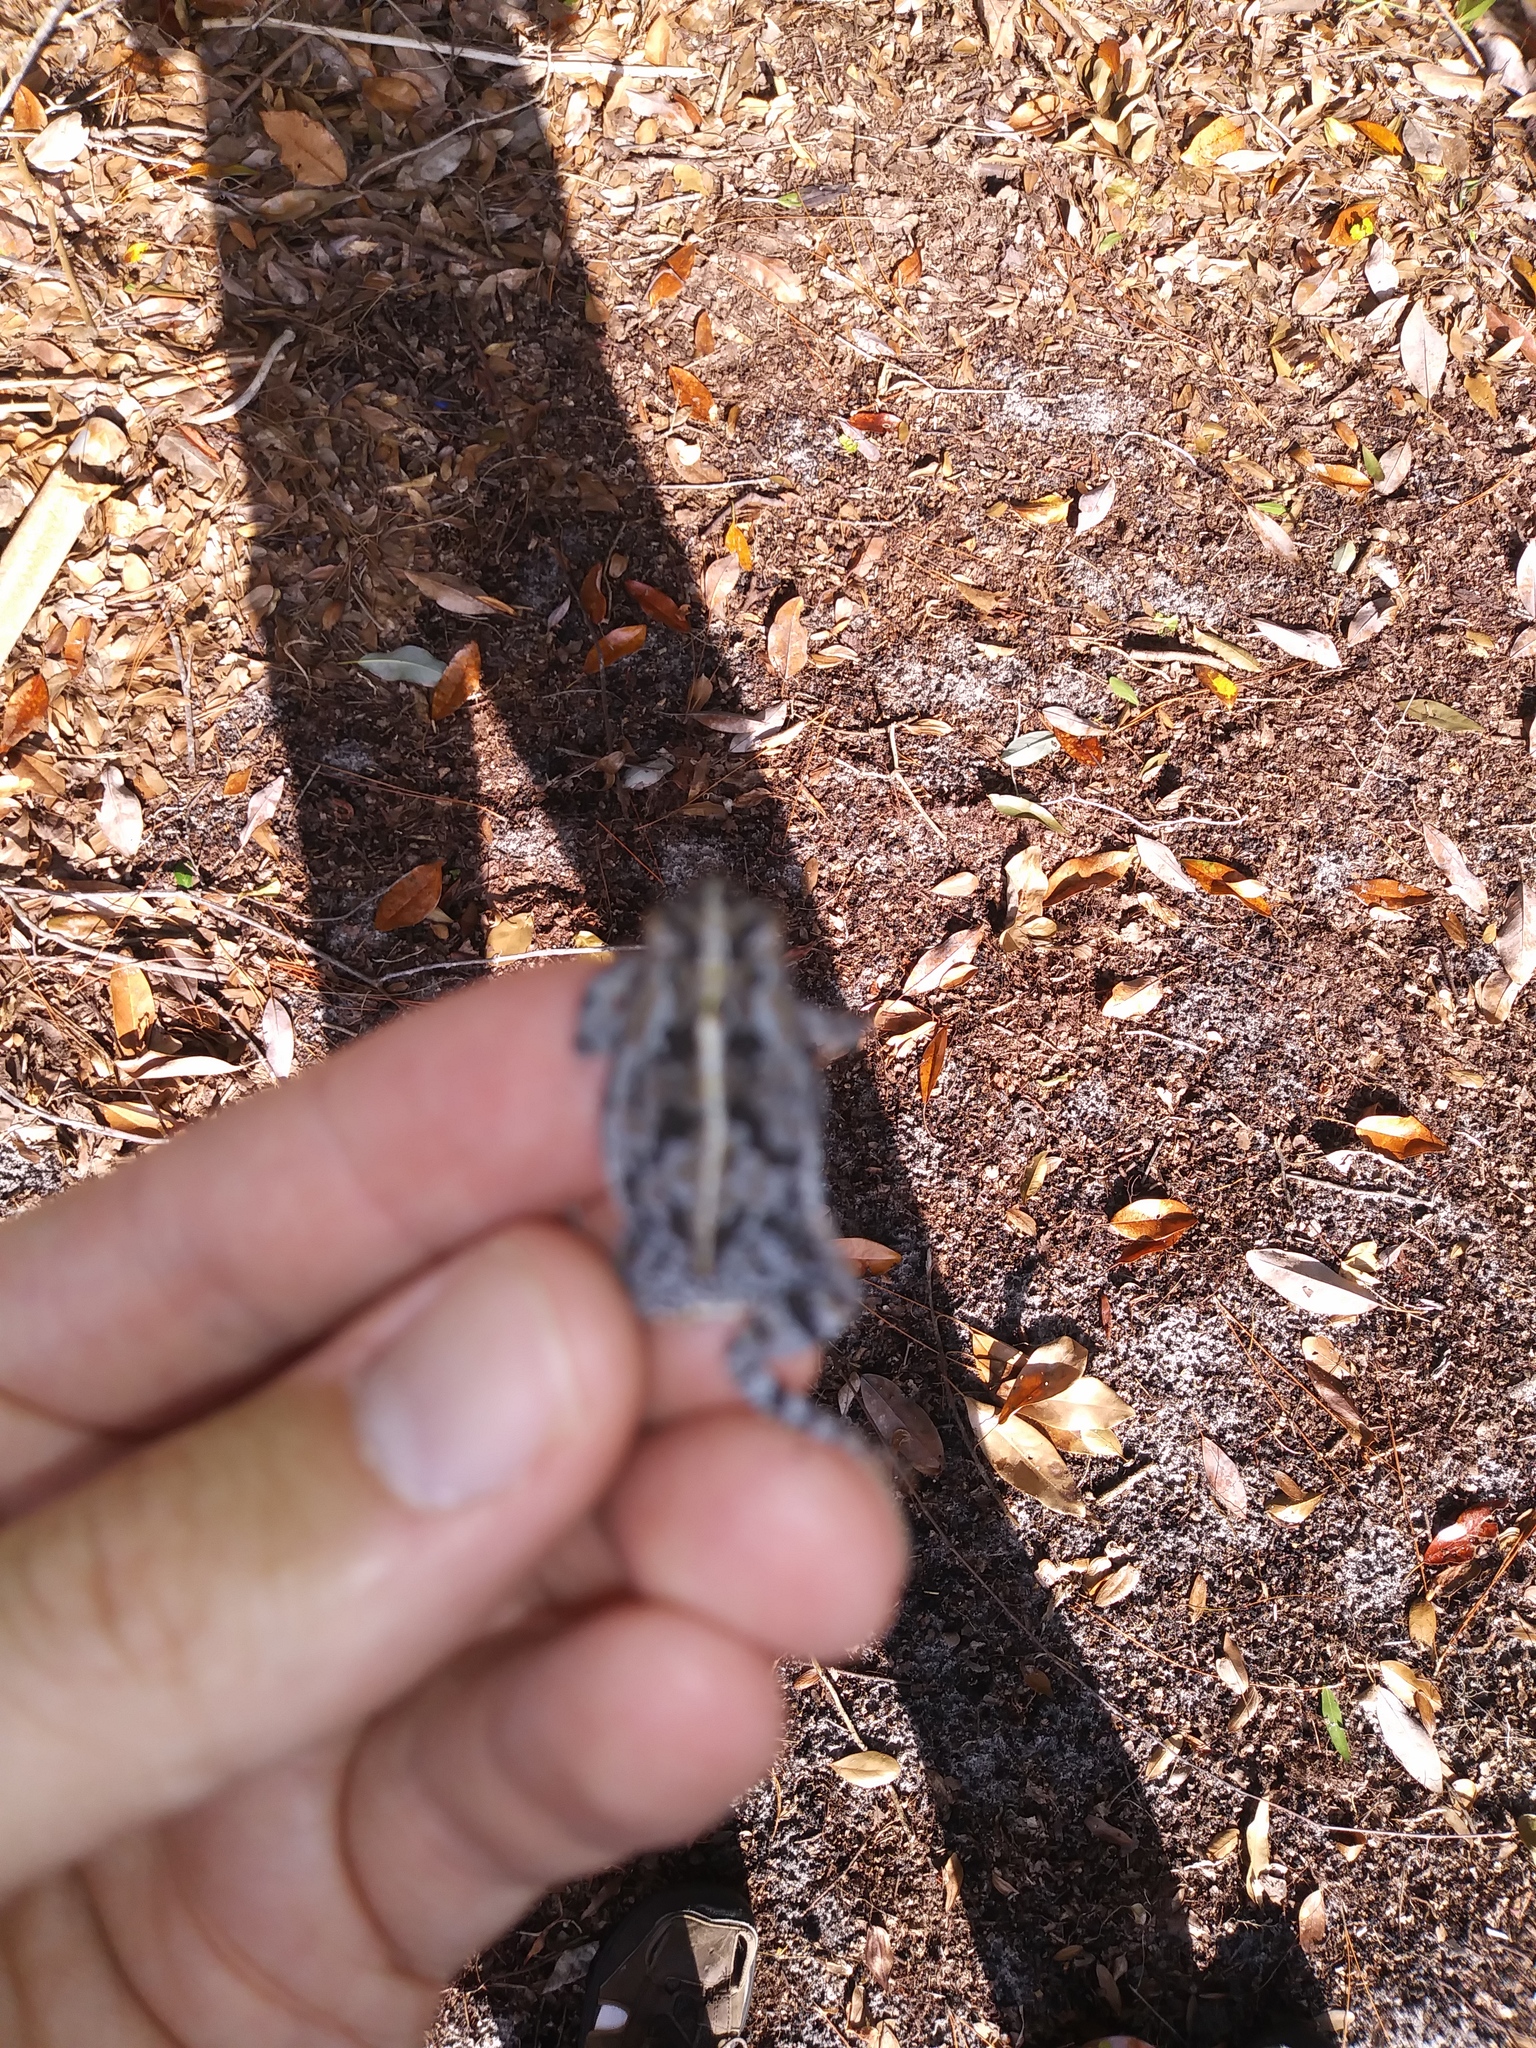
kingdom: Animalia
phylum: Chordata
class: Amphibia
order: Anura
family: Bufonidae
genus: Anaxyrus
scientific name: Anaxyrus quercicus
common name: Oak toad
